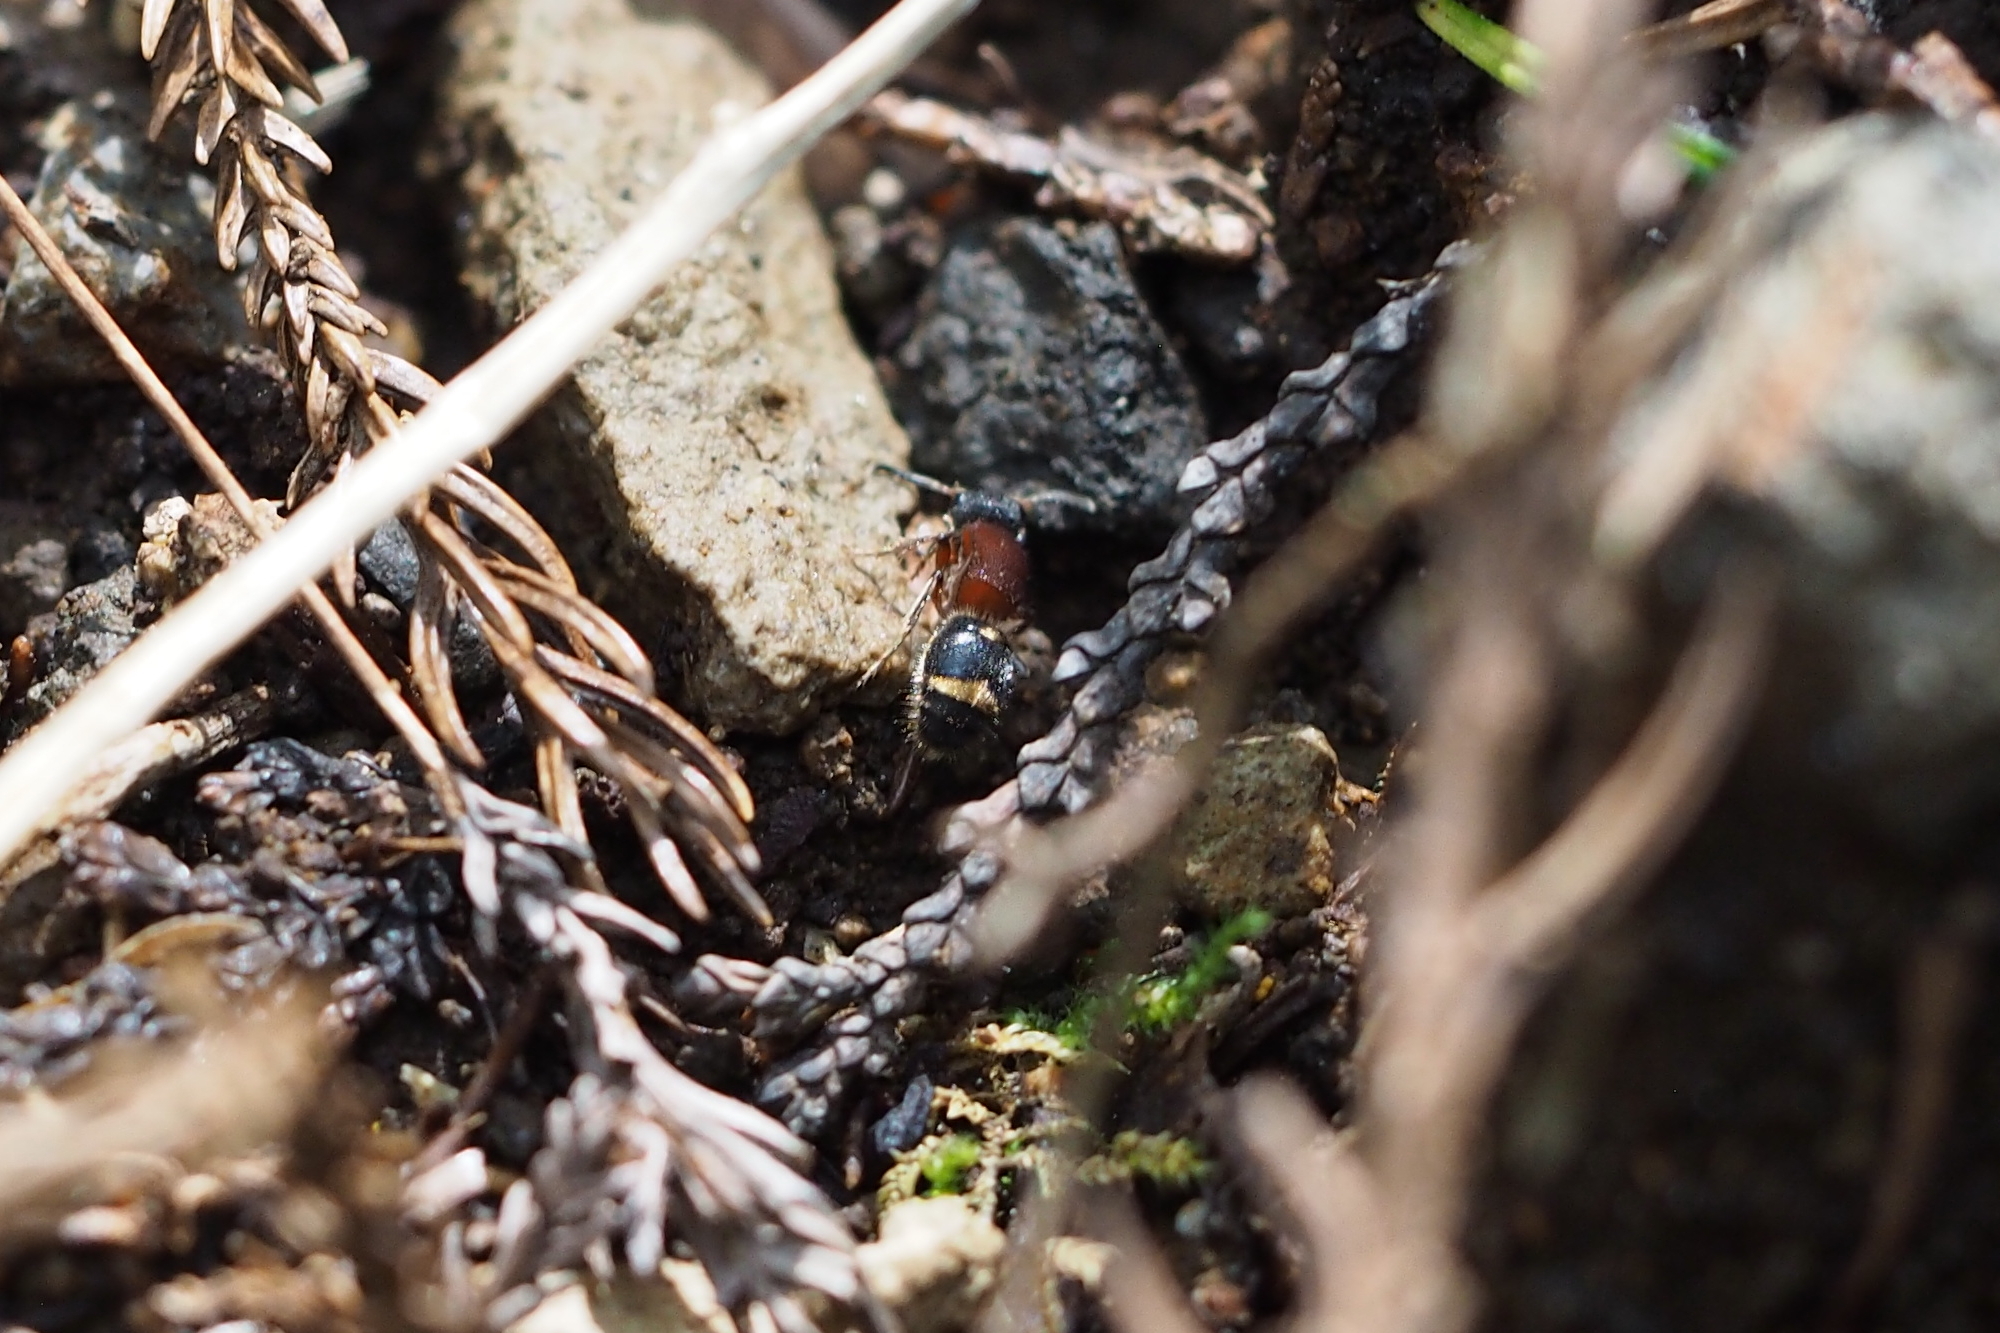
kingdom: Animalia
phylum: Arthropoda
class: Insecta
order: Hymenoptera
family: Mutillidae
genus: Bischoffitilla
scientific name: Bischoffitilla
